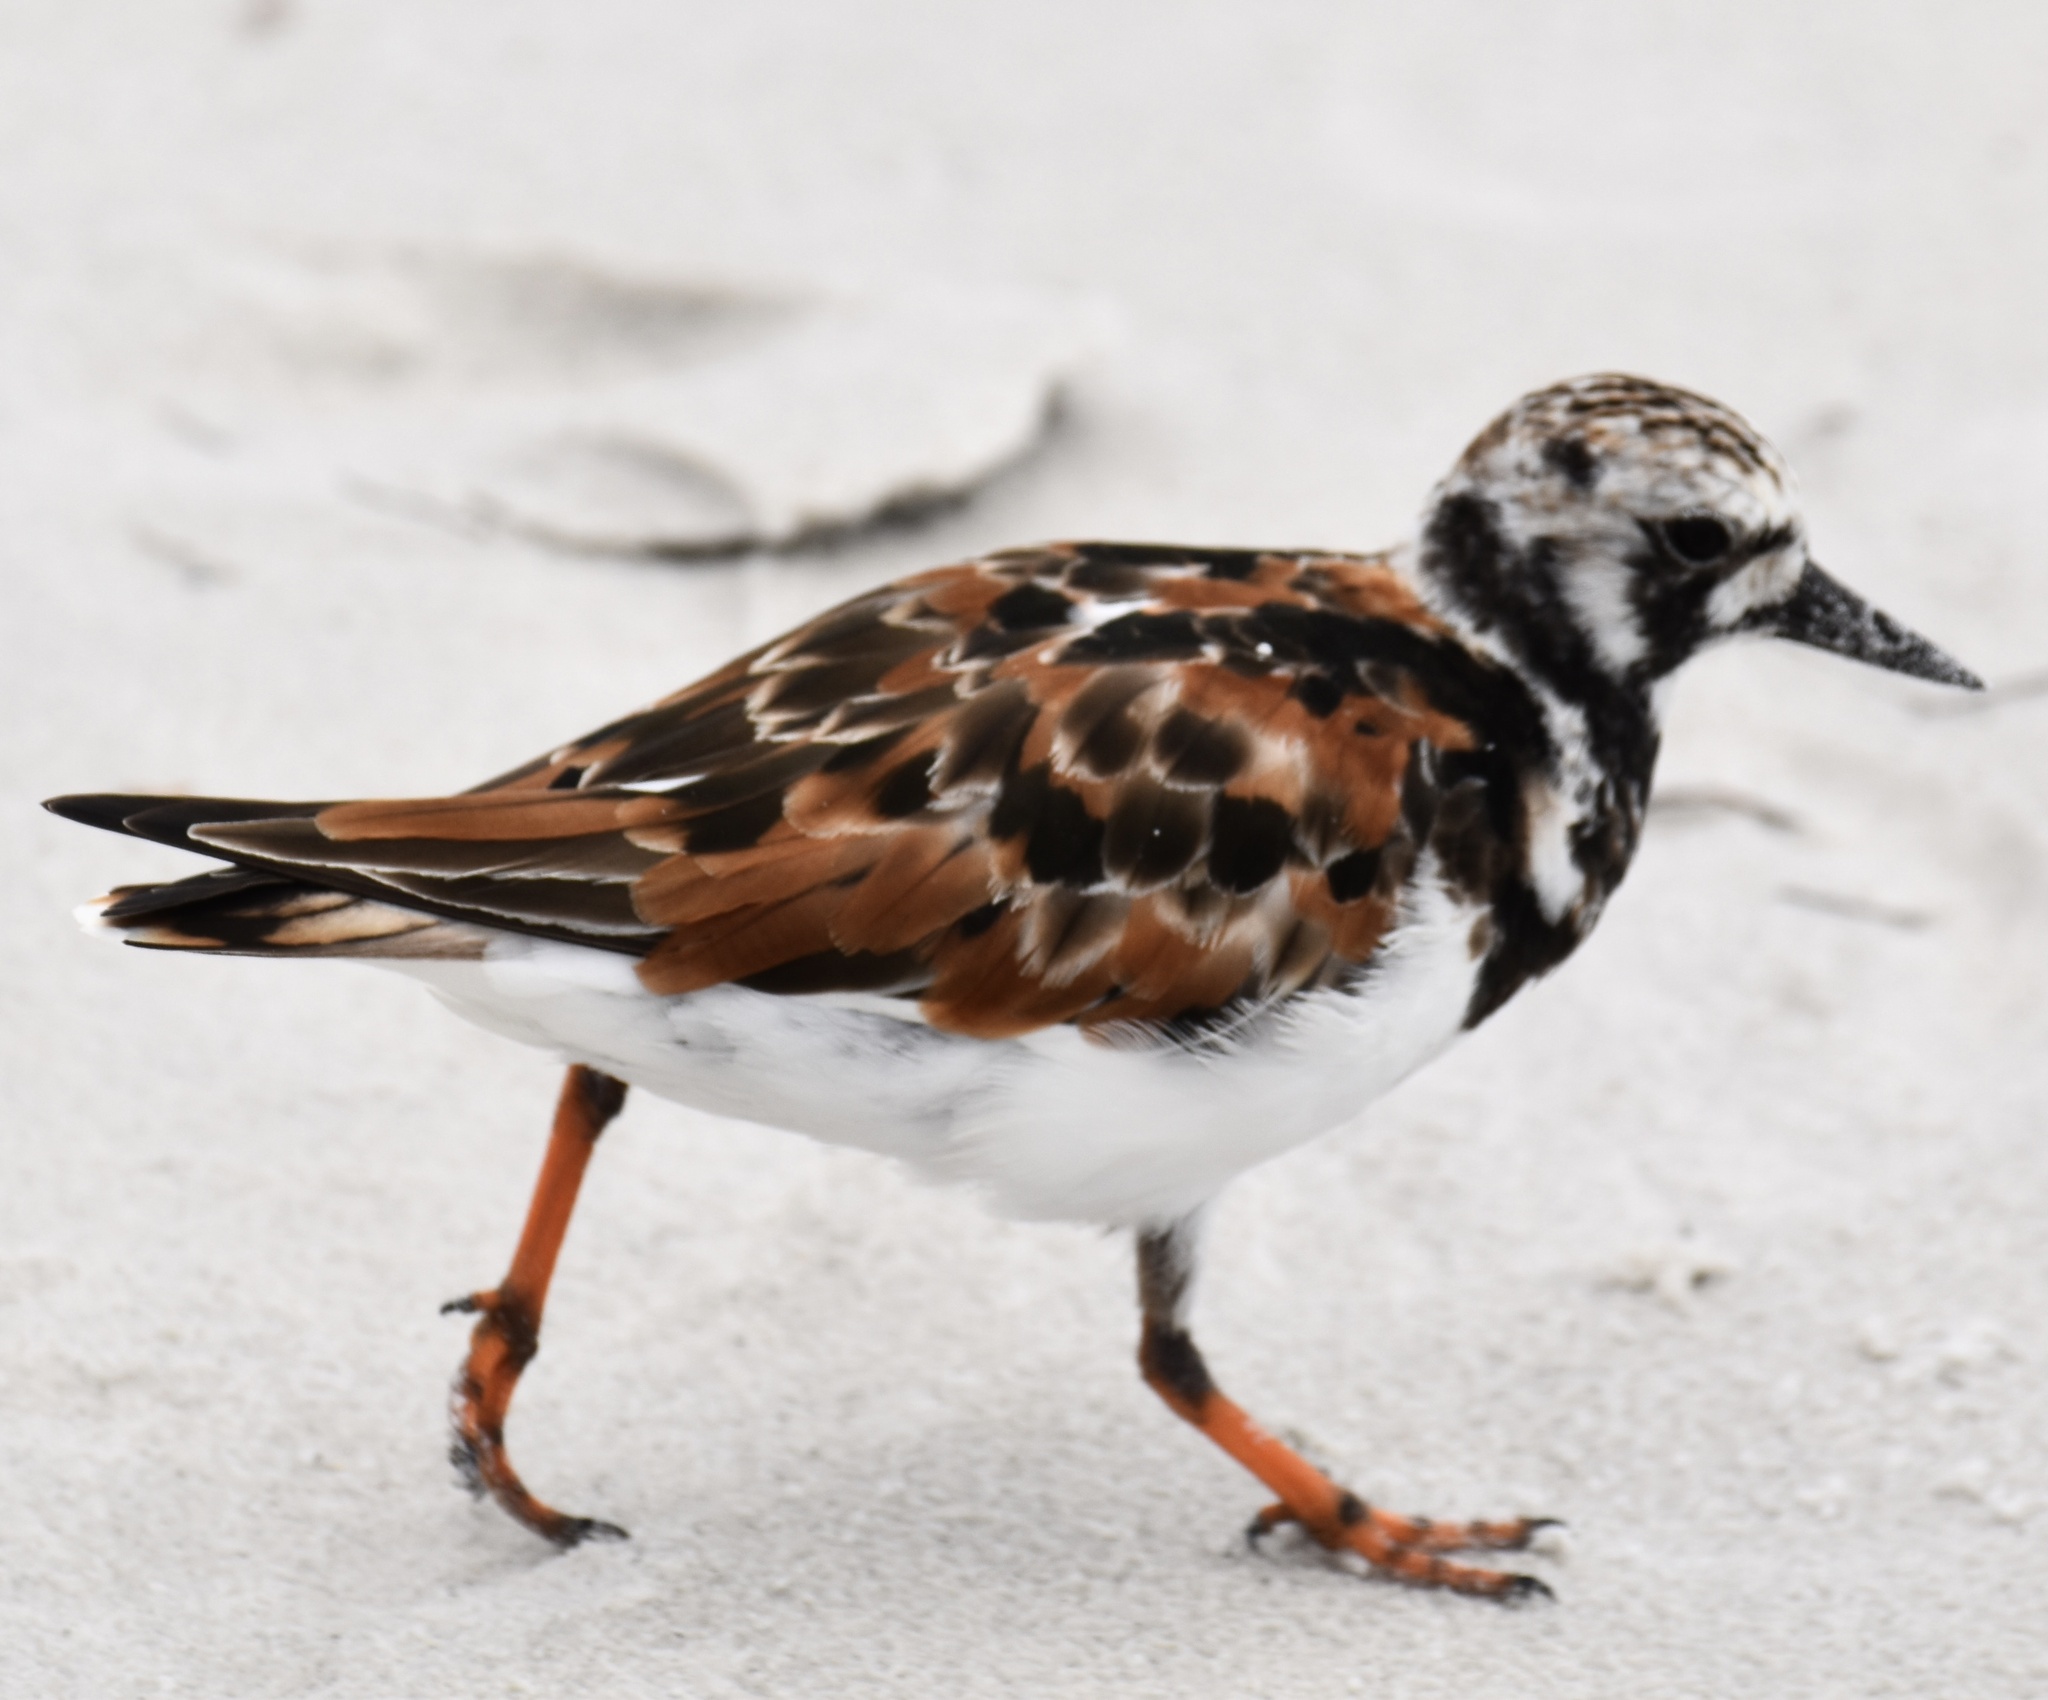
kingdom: Animalia
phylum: Chordata
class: Aves
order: Charadriiformes
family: Scolopacidae
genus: Arenaria
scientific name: Arenaria interpres
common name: Ruddy turnstone
